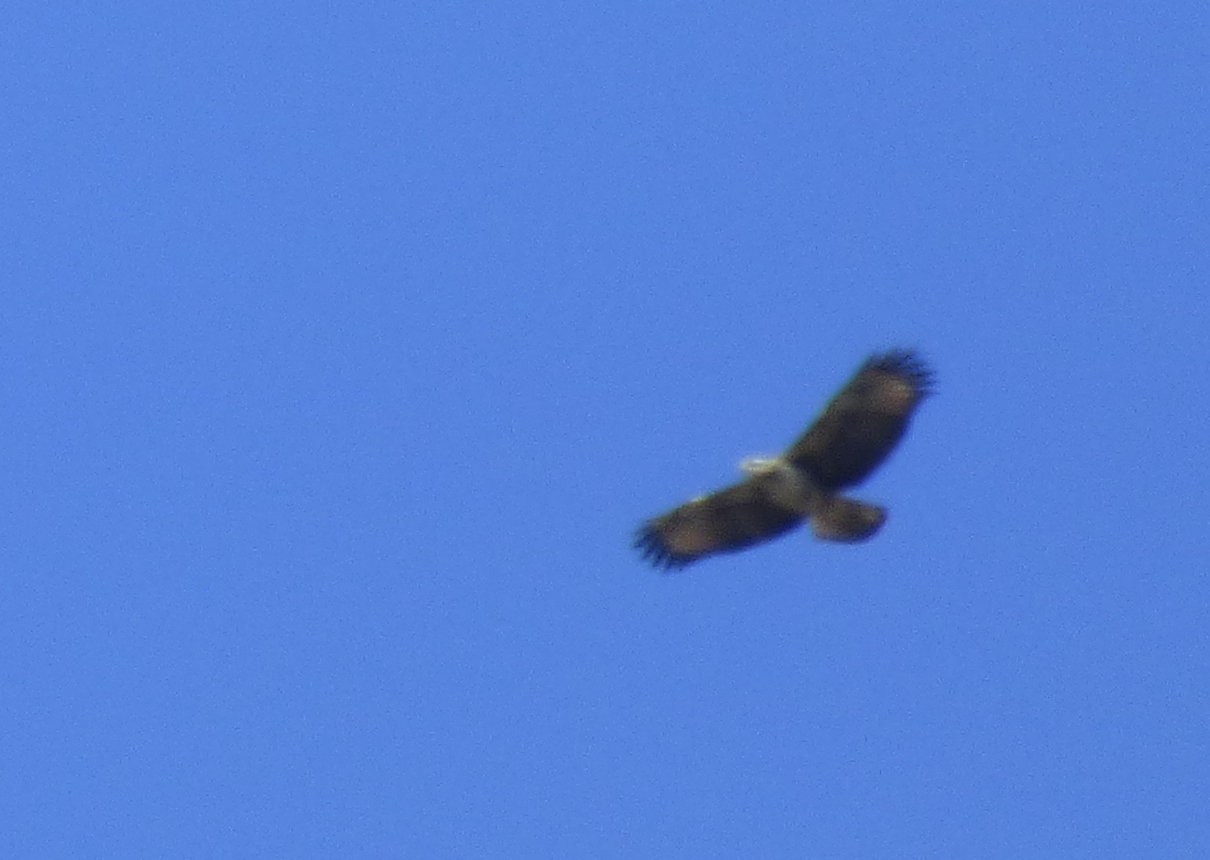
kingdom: Animalia
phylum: Chordata
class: Aves
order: Accipitriformes
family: Accipitridae
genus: Buteogallus
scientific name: Buteogallus meridionalis
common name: Savanna hawk
